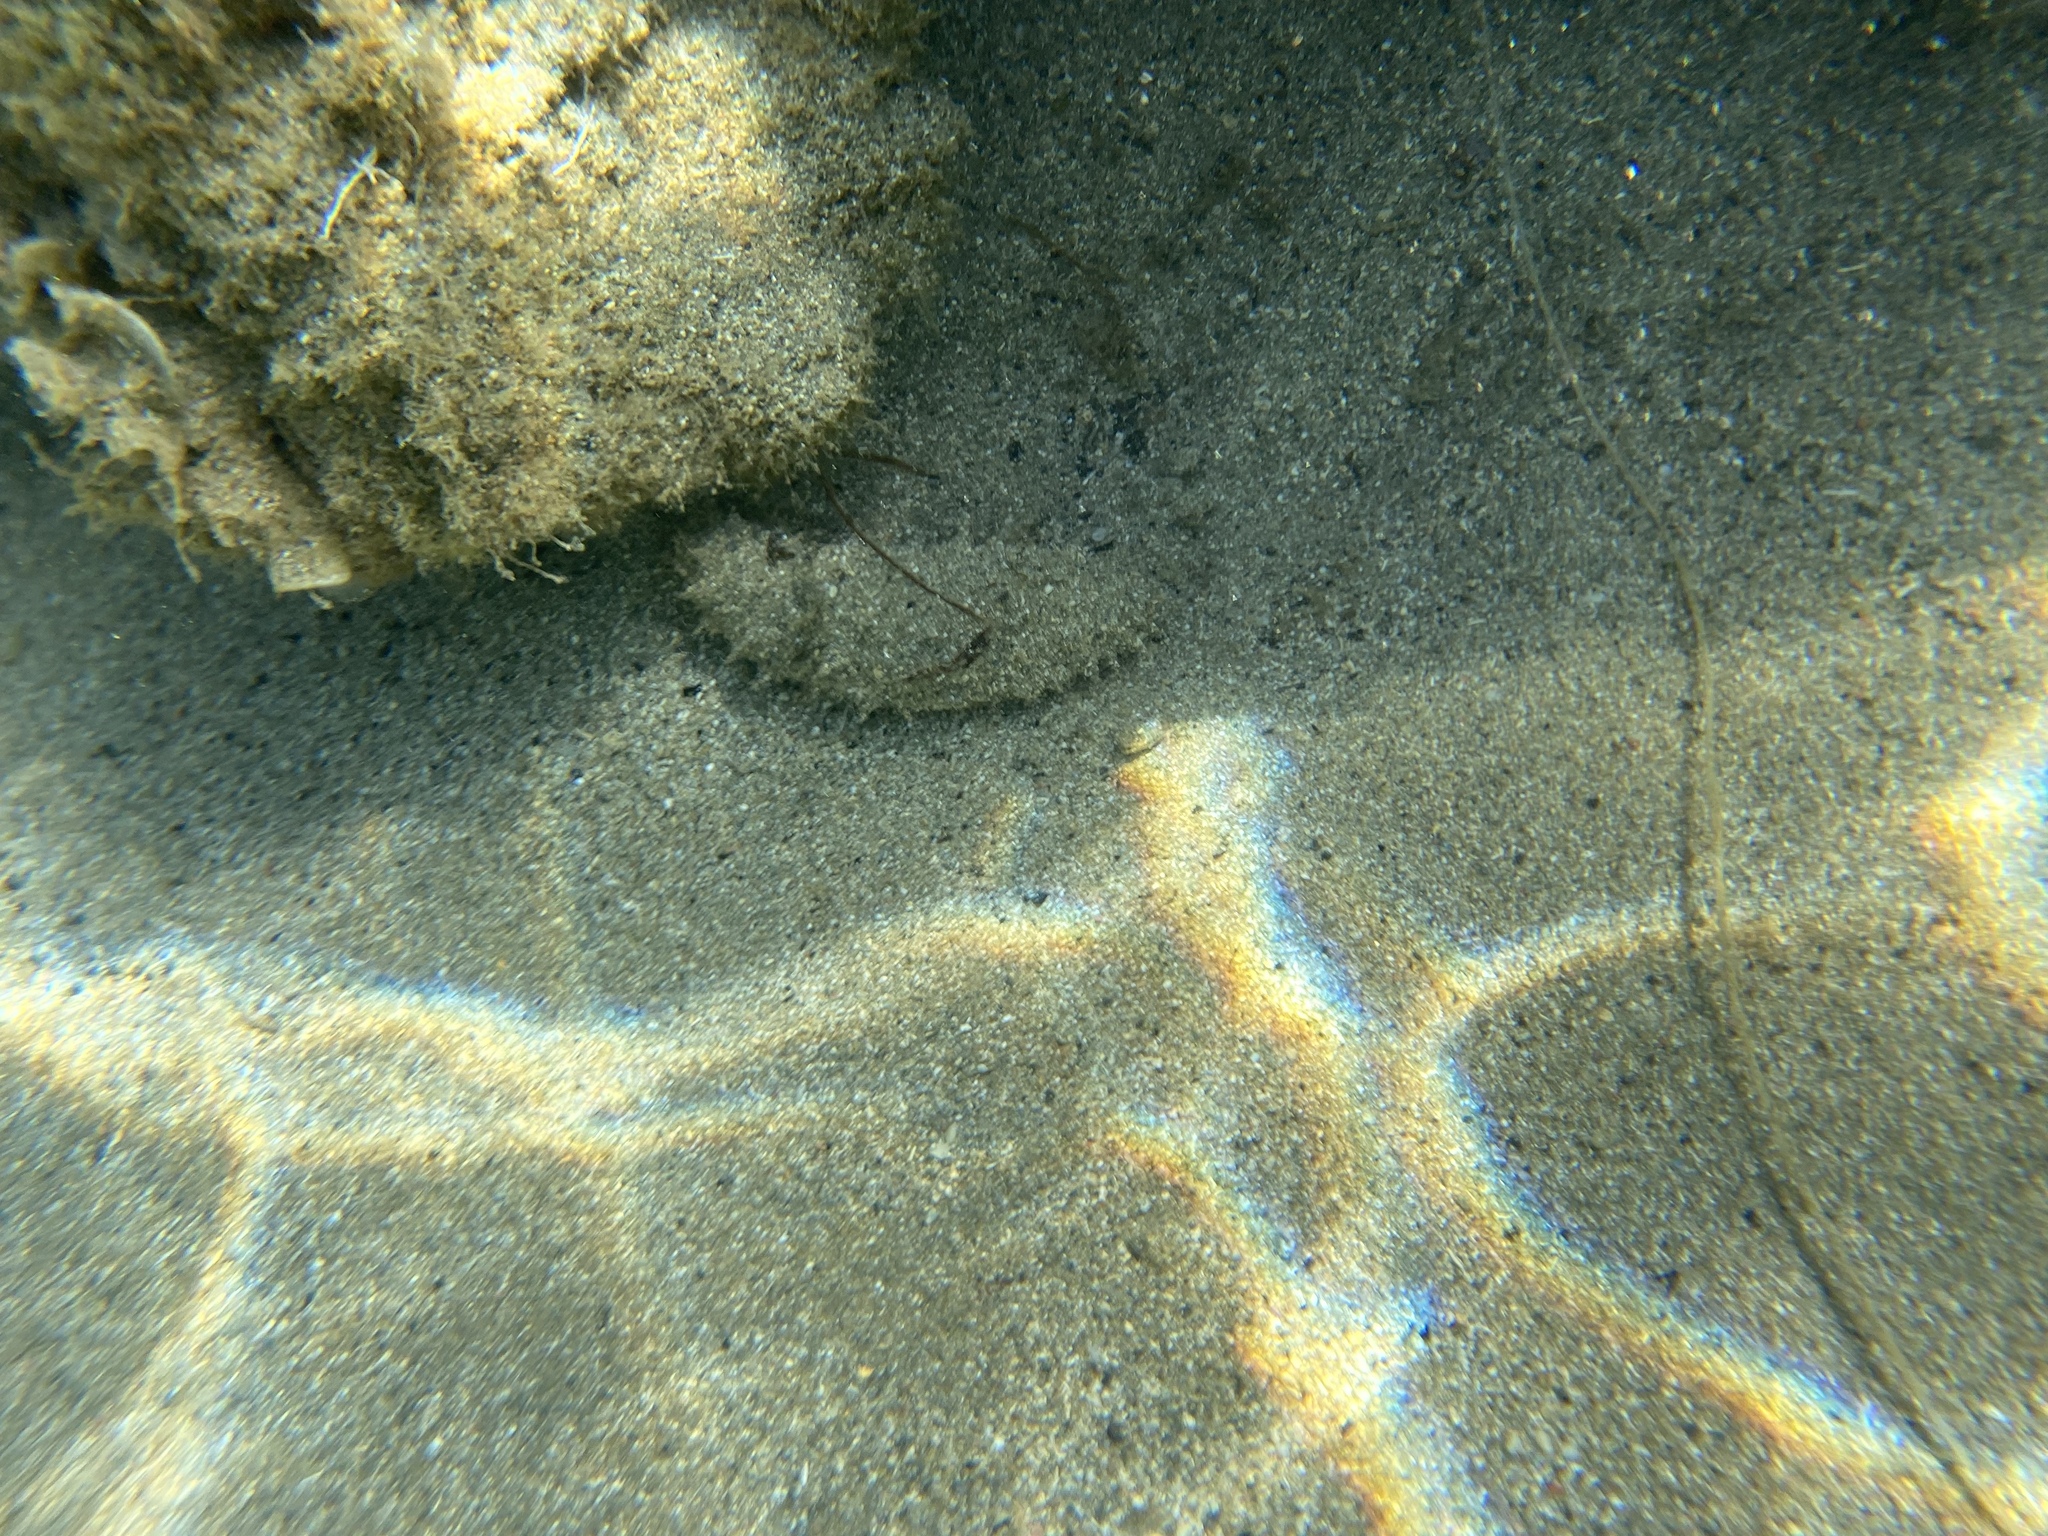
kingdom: Animalia
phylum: Echinodermata
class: Holothuroidea
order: Holothuriida
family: Holothuriidae
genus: Holothuria
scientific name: Holothuria
